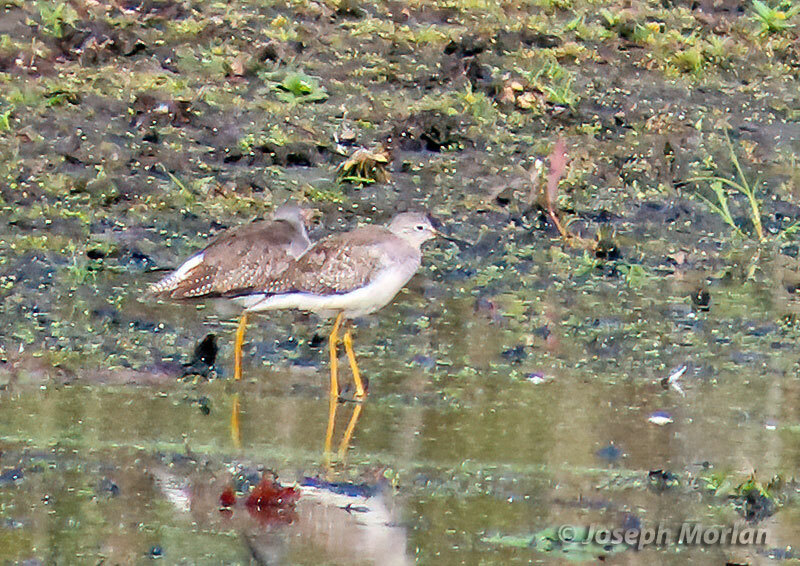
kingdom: Animalia
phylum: Chordata
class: Aves
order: Charadriiformes
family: Scolopacidae
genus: Tringa
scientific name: Tringa flavipes
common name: Lesser yellowlegs
